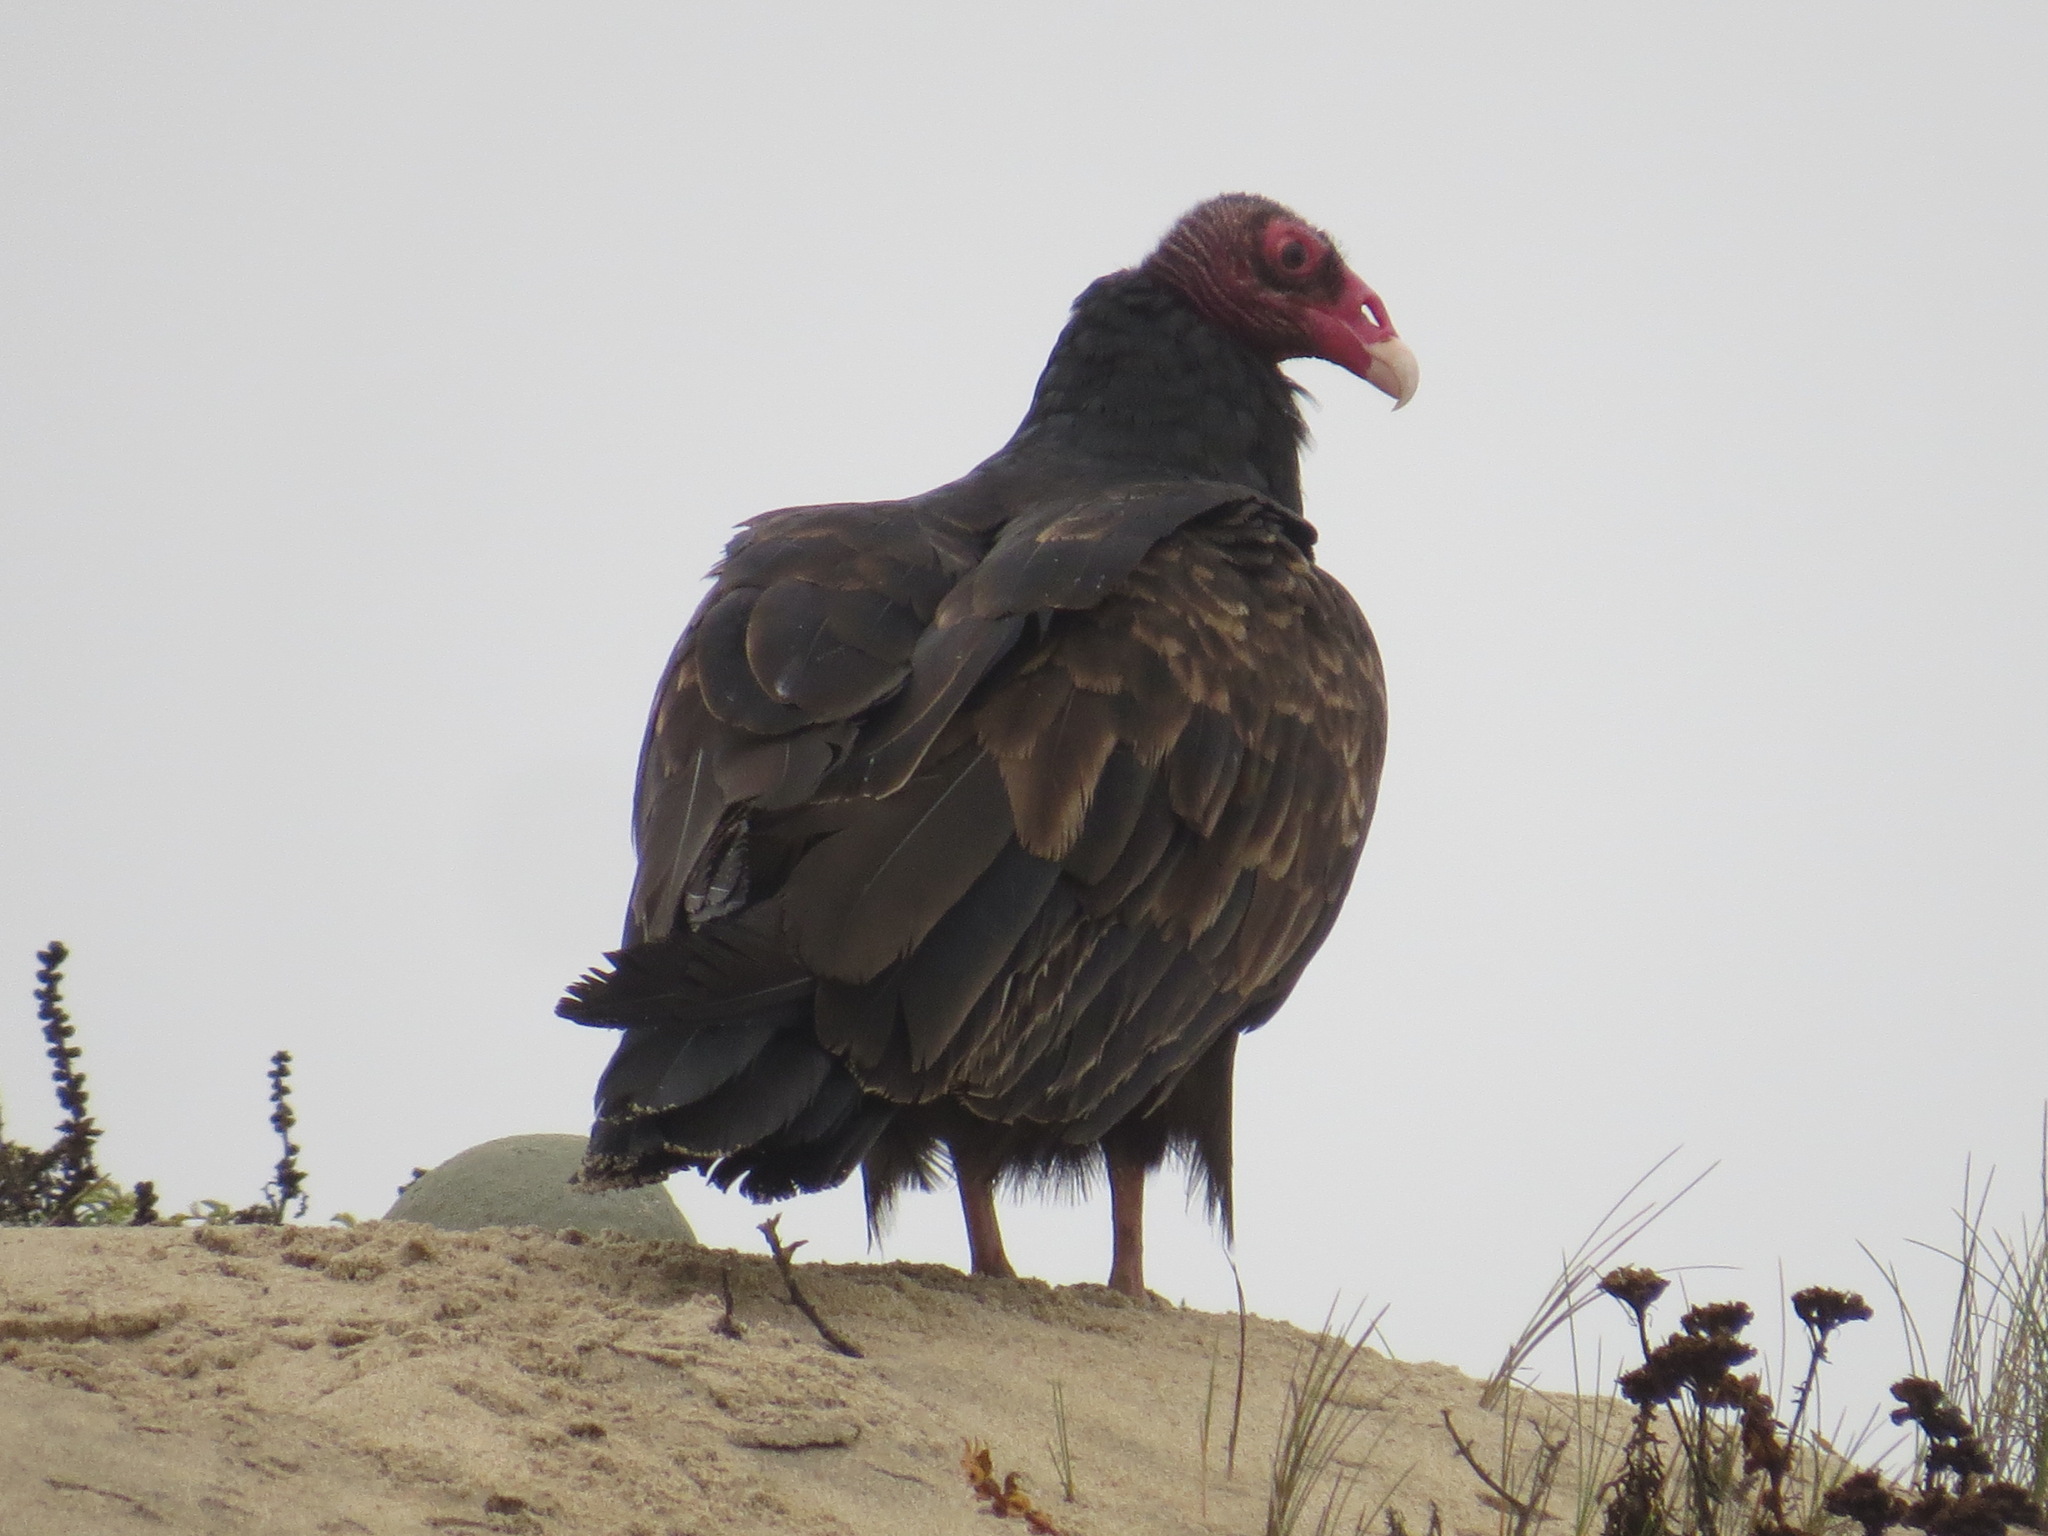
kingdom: Animalia
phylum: Chordata
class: Aves
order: Accipitriformes
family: Cathartidae
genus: Cathartes
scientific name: Cathartes aura
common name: Turkey vulture
